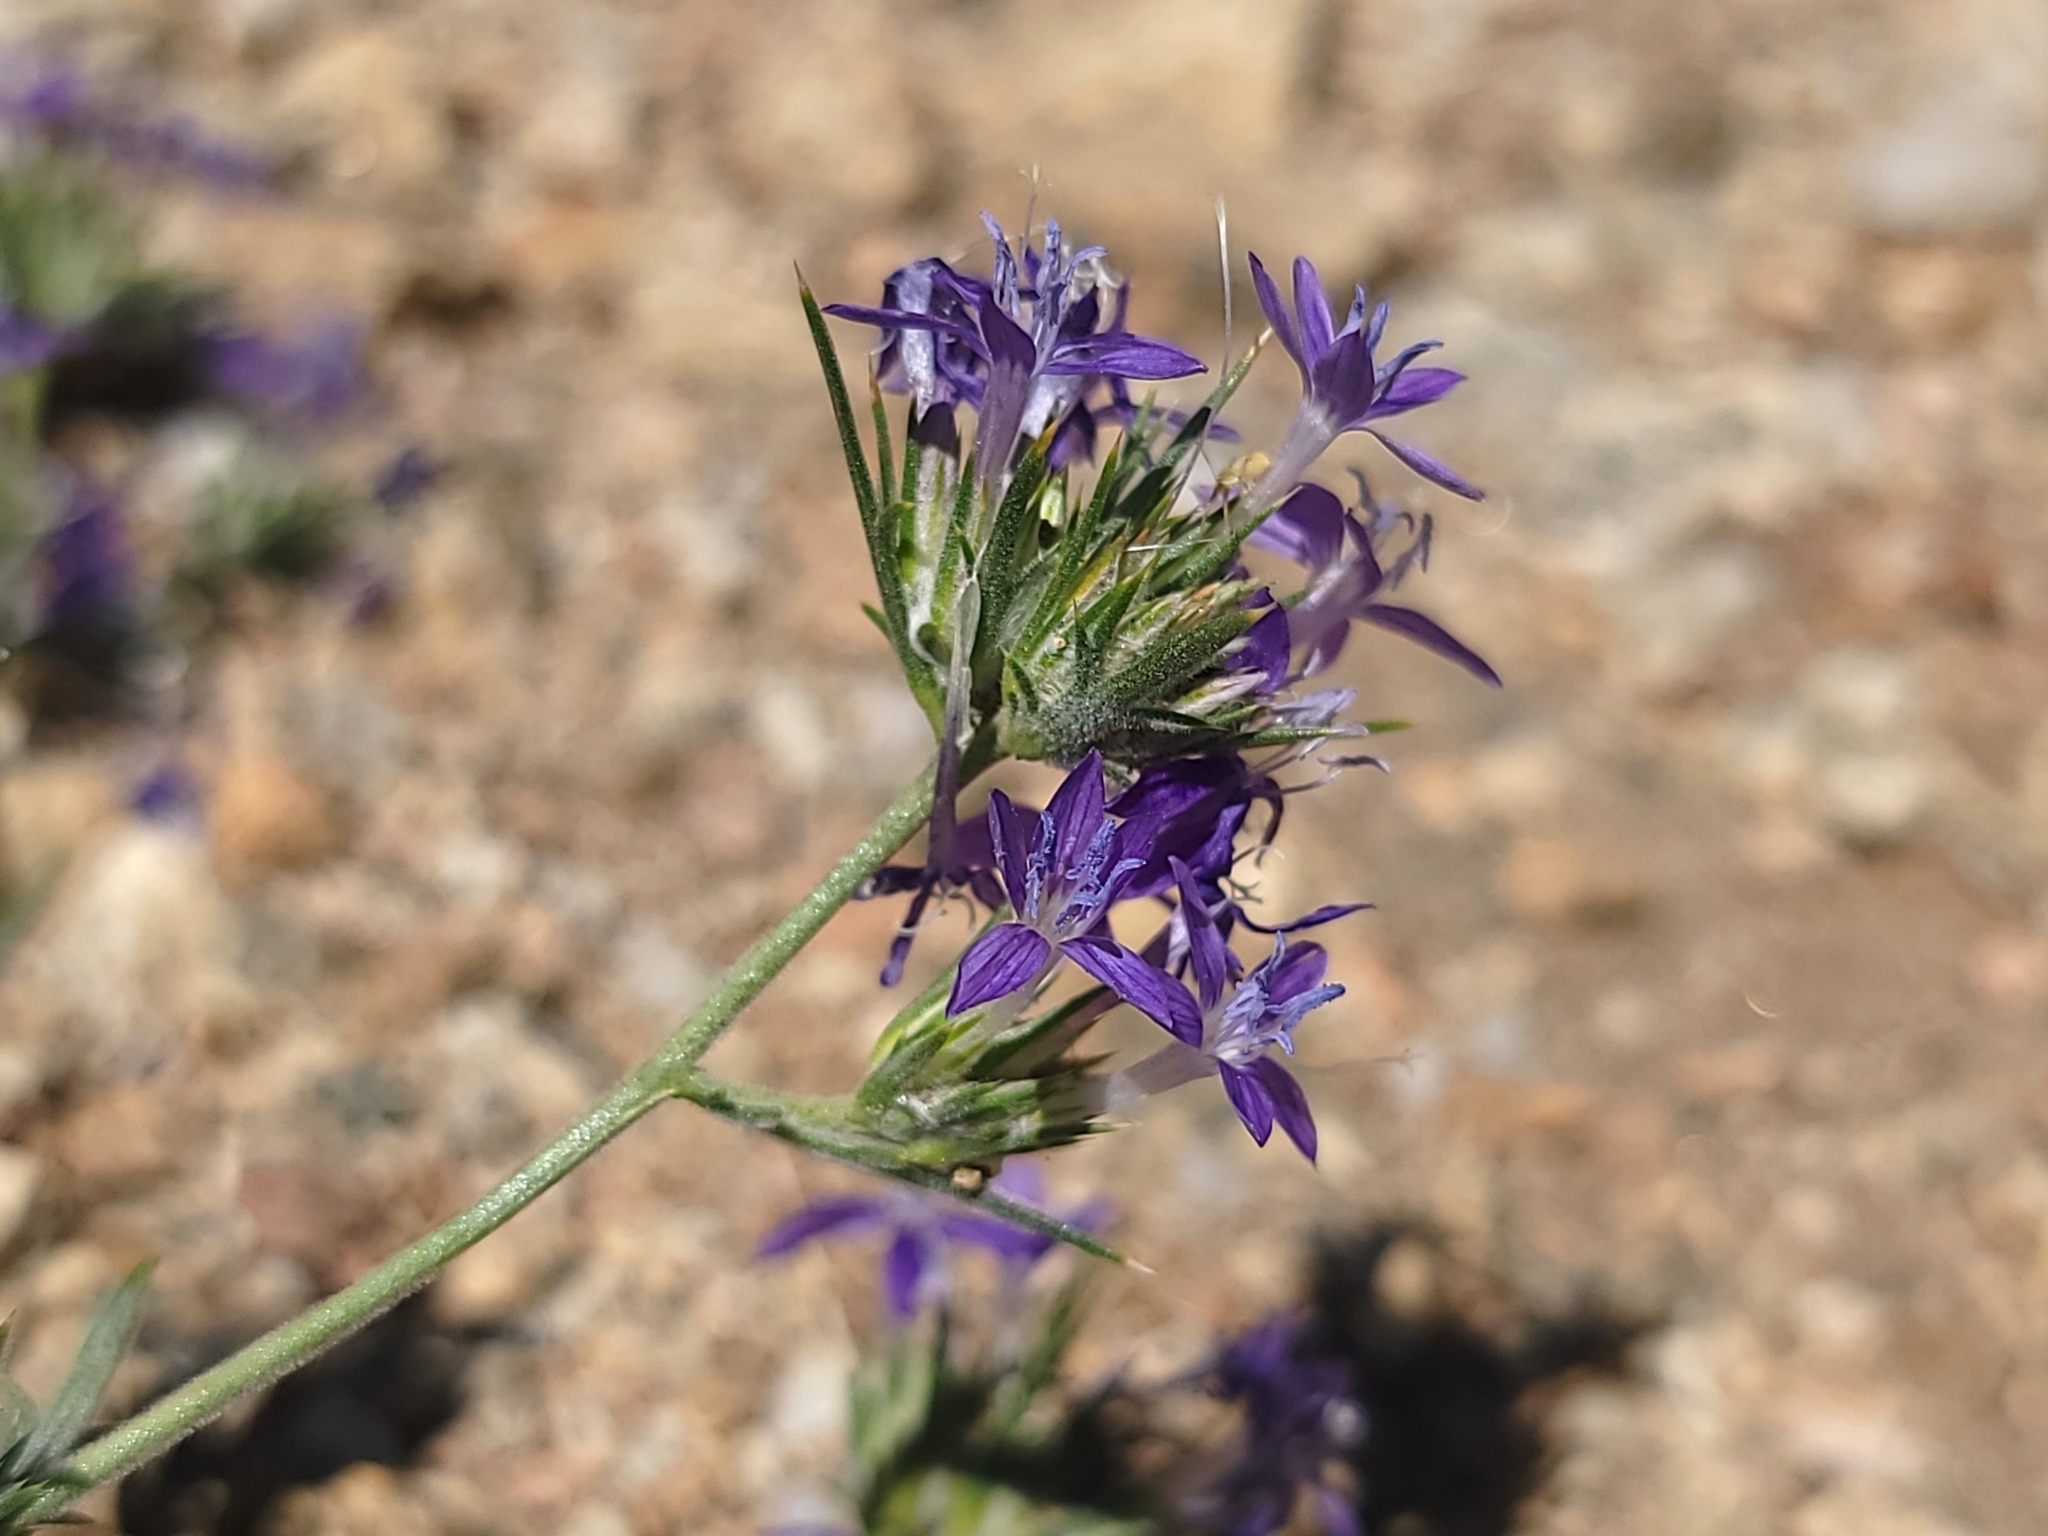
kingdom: Plantae
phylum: Tracheophyta
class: Magnoliopsida
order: Ericales
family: Polemoniaceae
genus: Eriastrum
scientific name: Eriastrum densifolium
